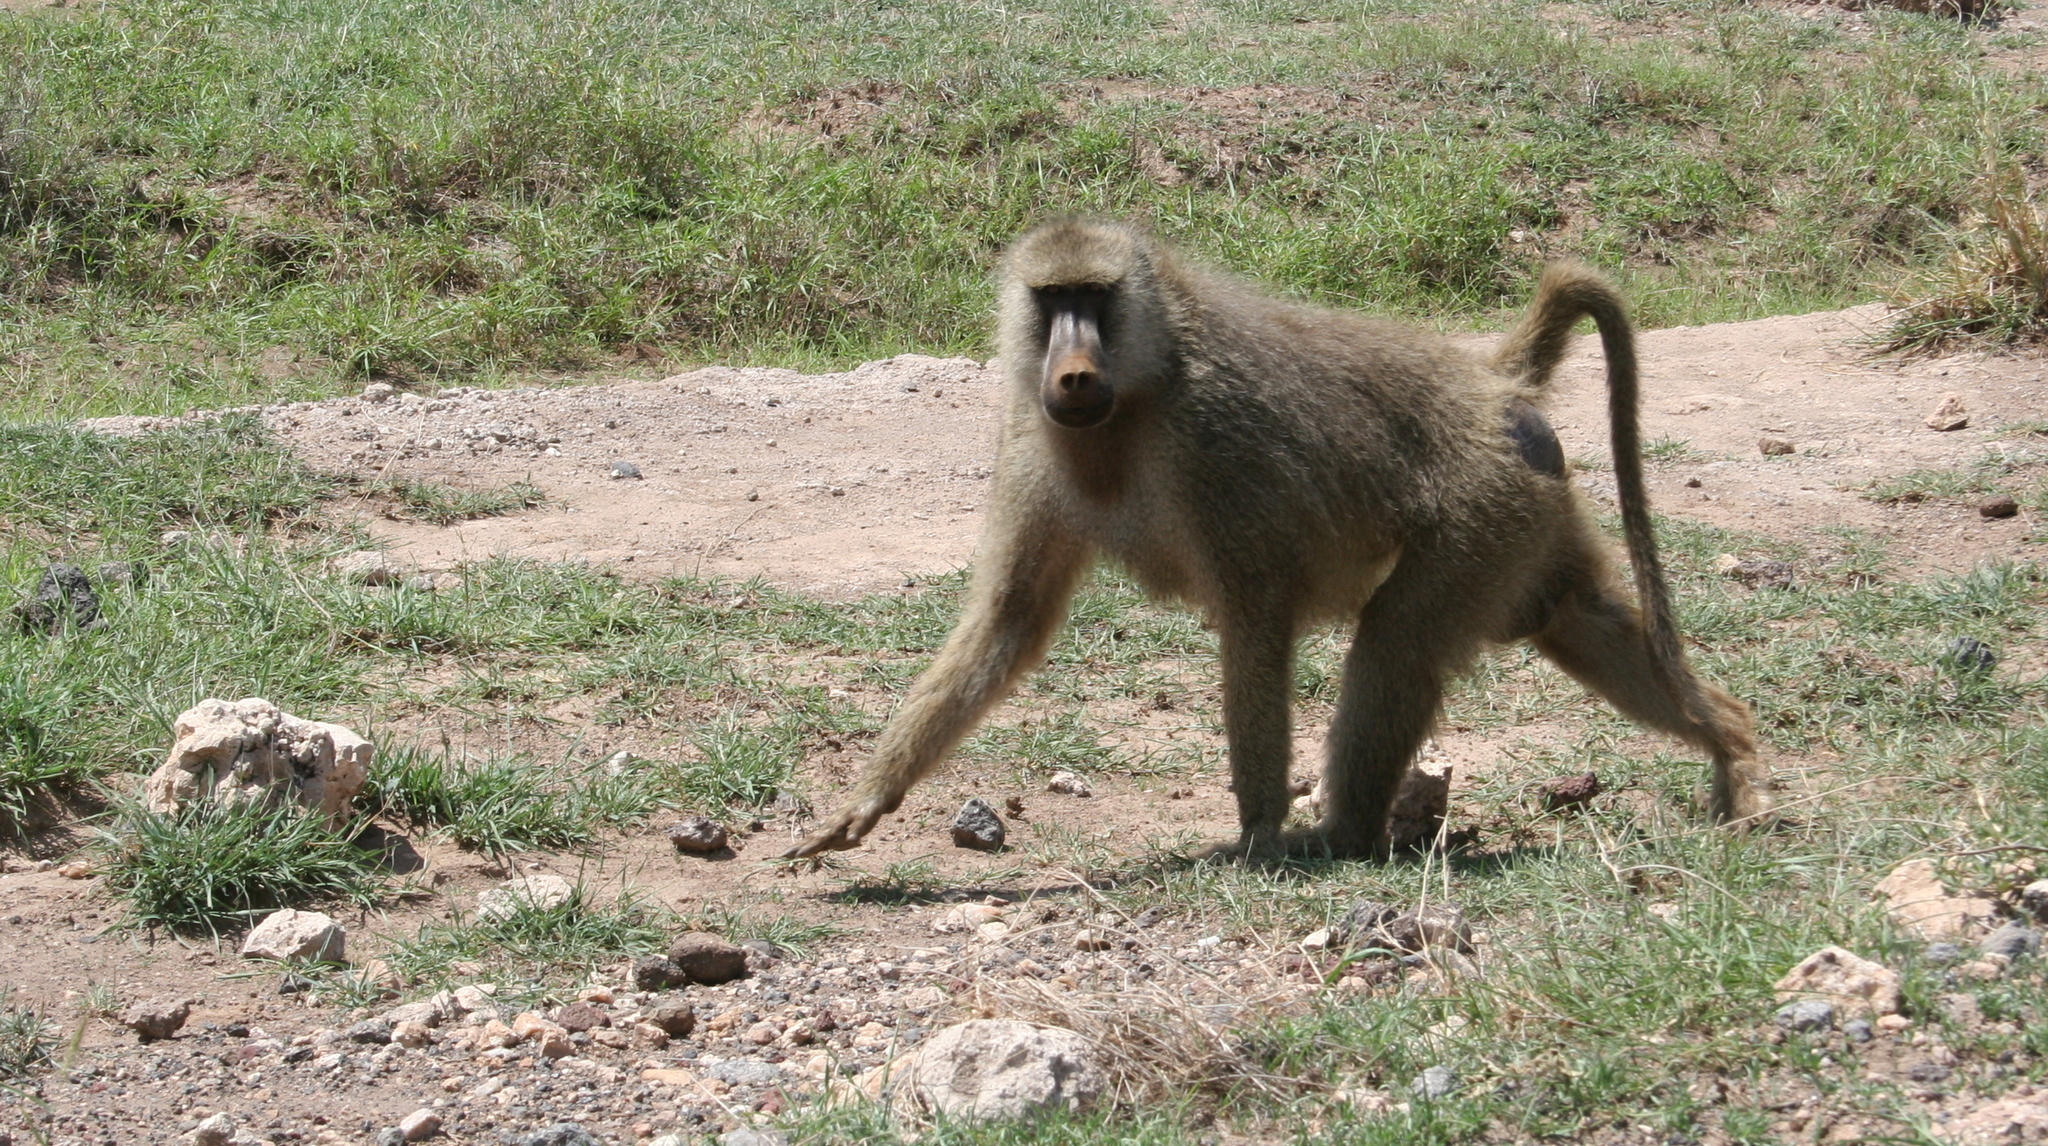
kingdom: Animalia
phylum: Chordata
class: Mammalia
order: Primates
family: Cercopithecidae
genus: Papio
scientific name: Papio cynocephalus
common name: Yellow baboon
